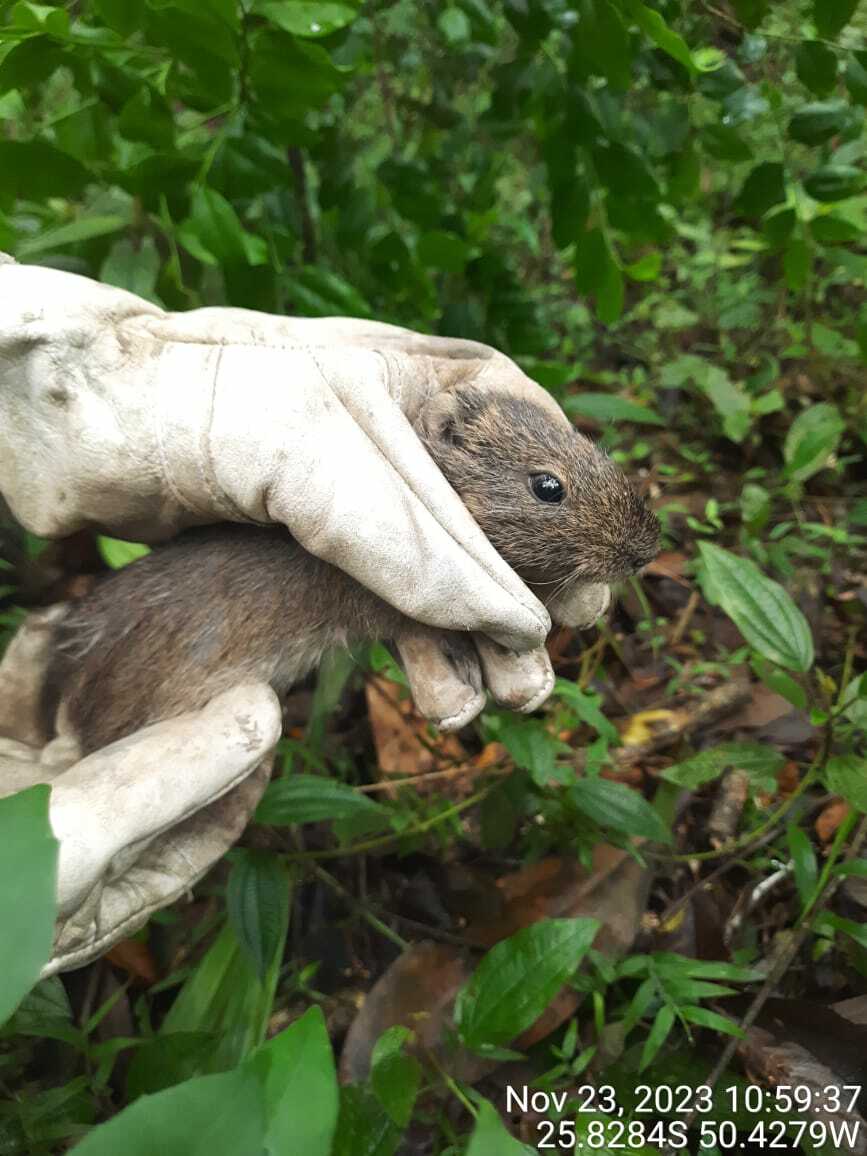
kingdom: Animalia
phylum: Chordata
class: Mammalia
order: Rodentia
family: Caviidae
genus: Cavia
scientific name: Cavia aperea
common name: Brazilian guinea pig
